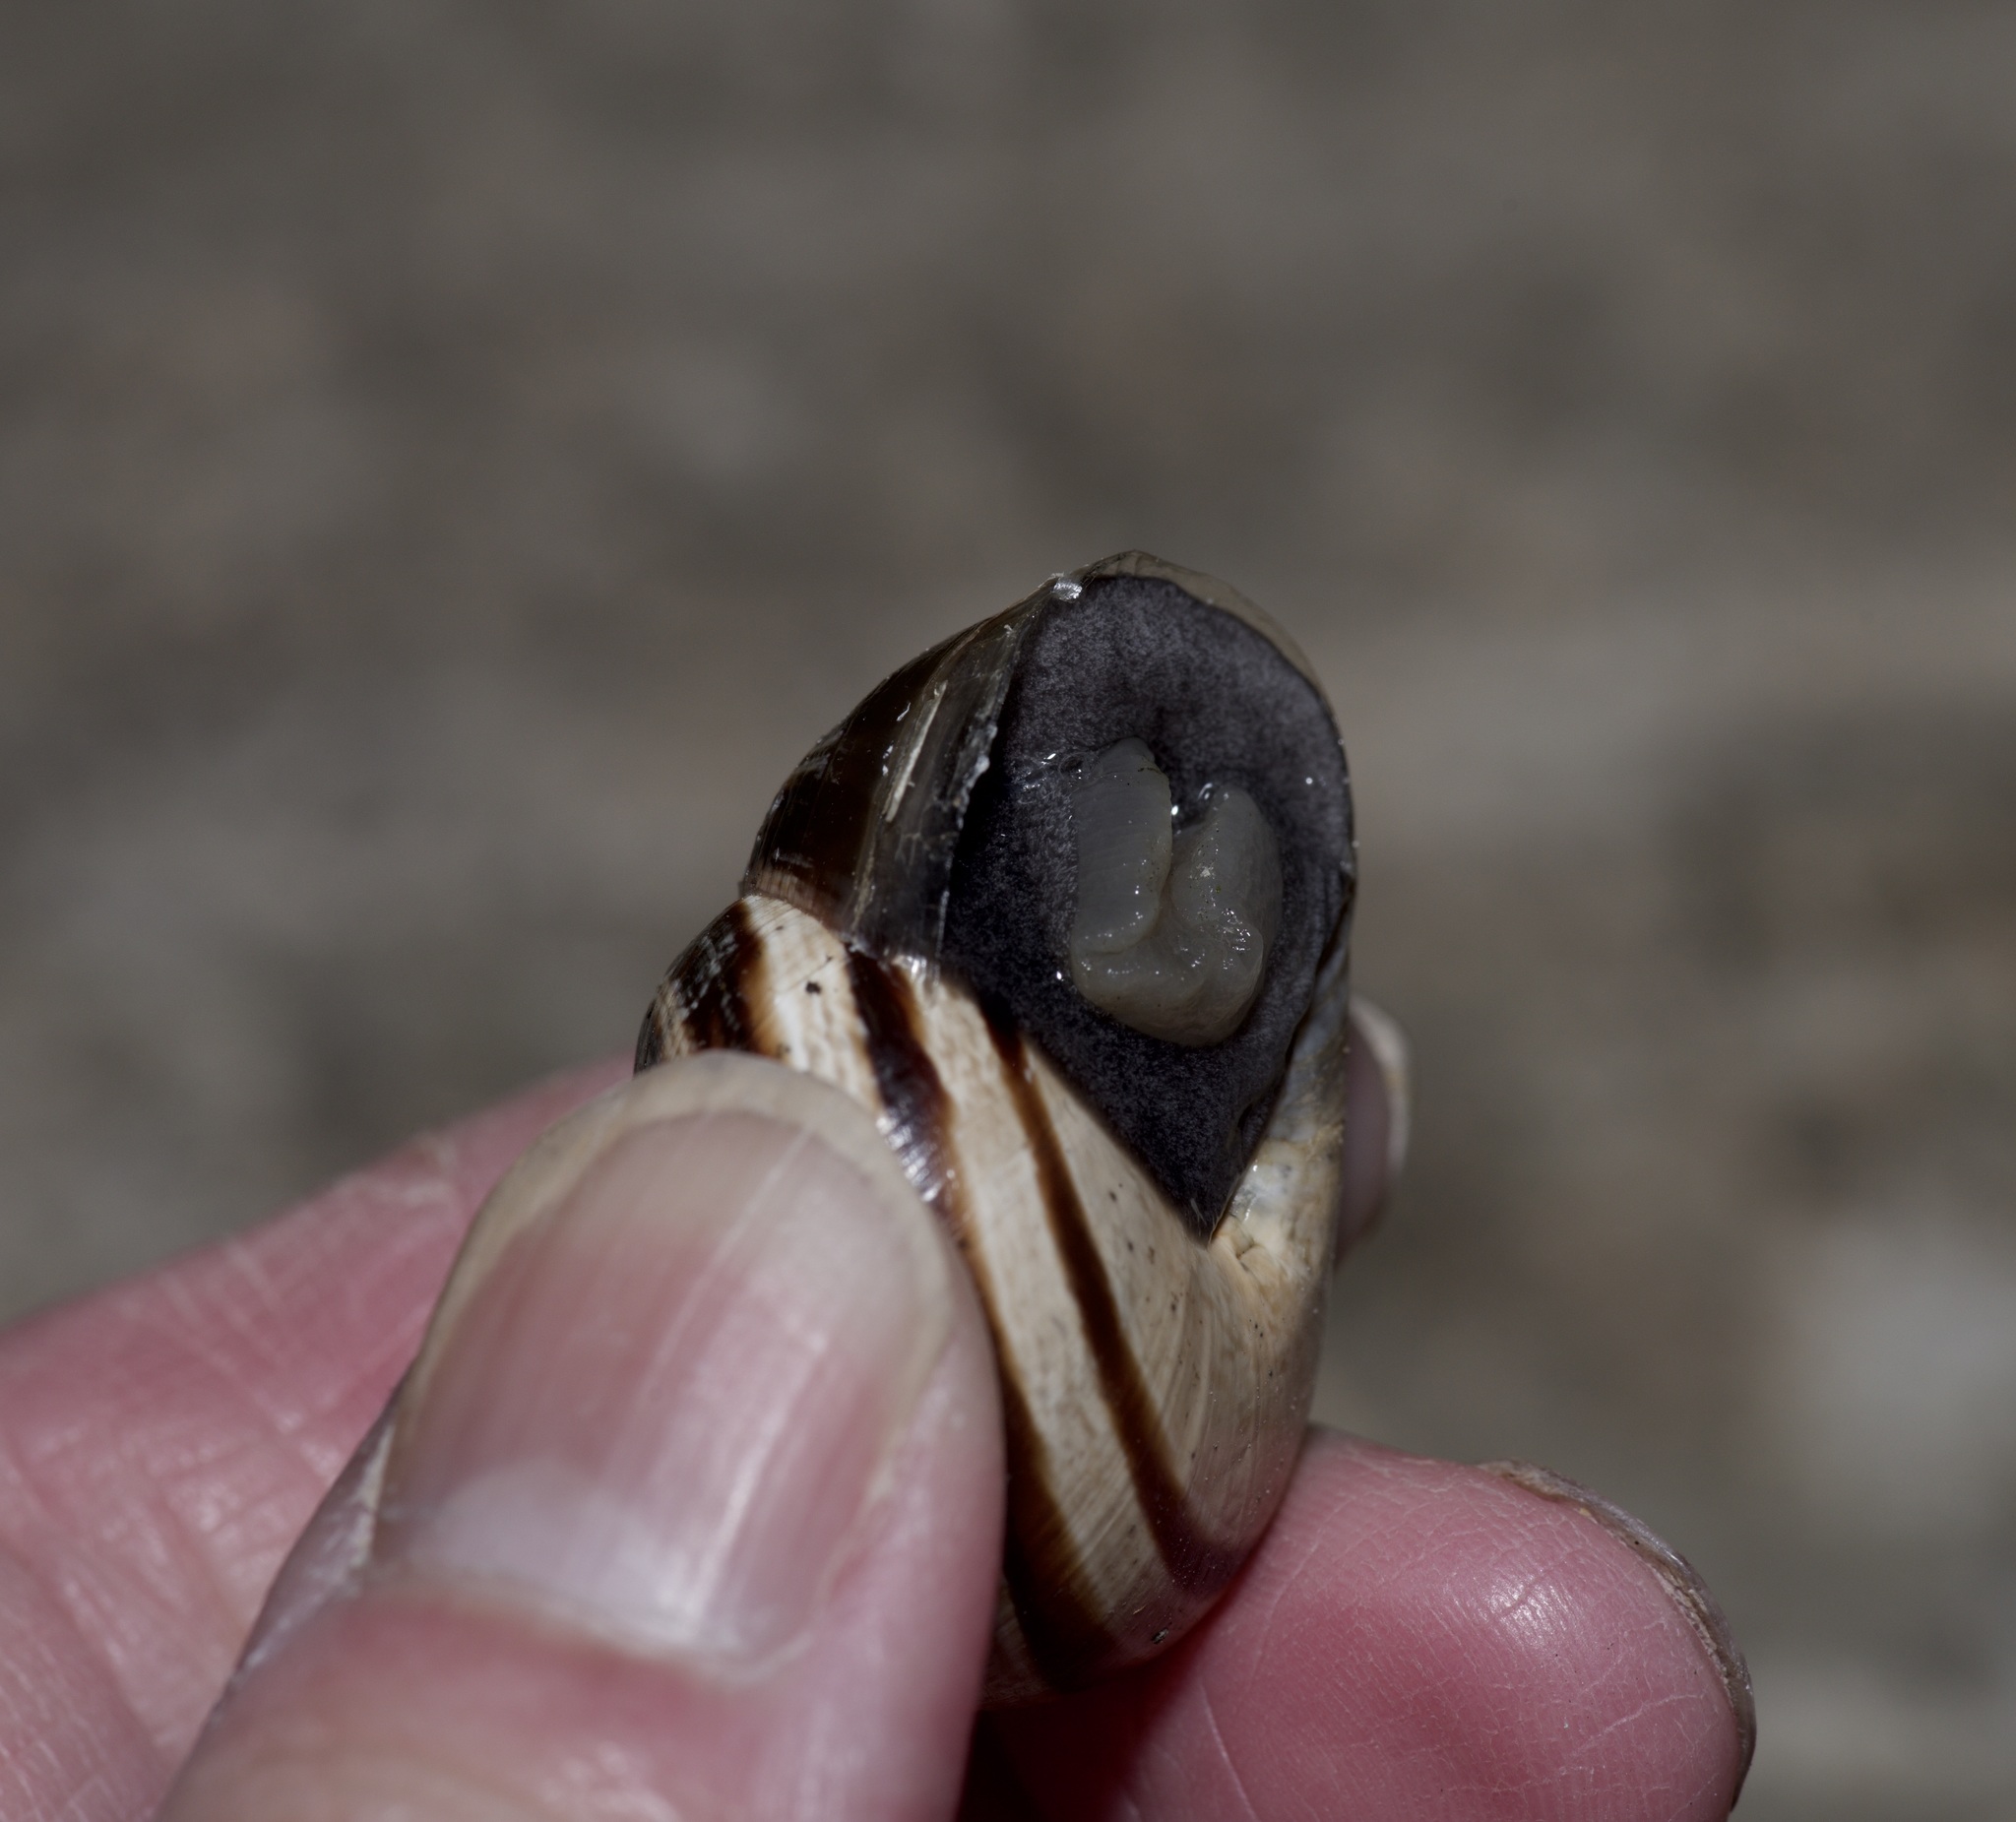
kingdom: Animalia
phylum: Mollusca
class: Gastropoda
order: Stylommatophora
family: Helicidae
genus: Otala
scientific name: Otala lactea
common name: Milk snail
